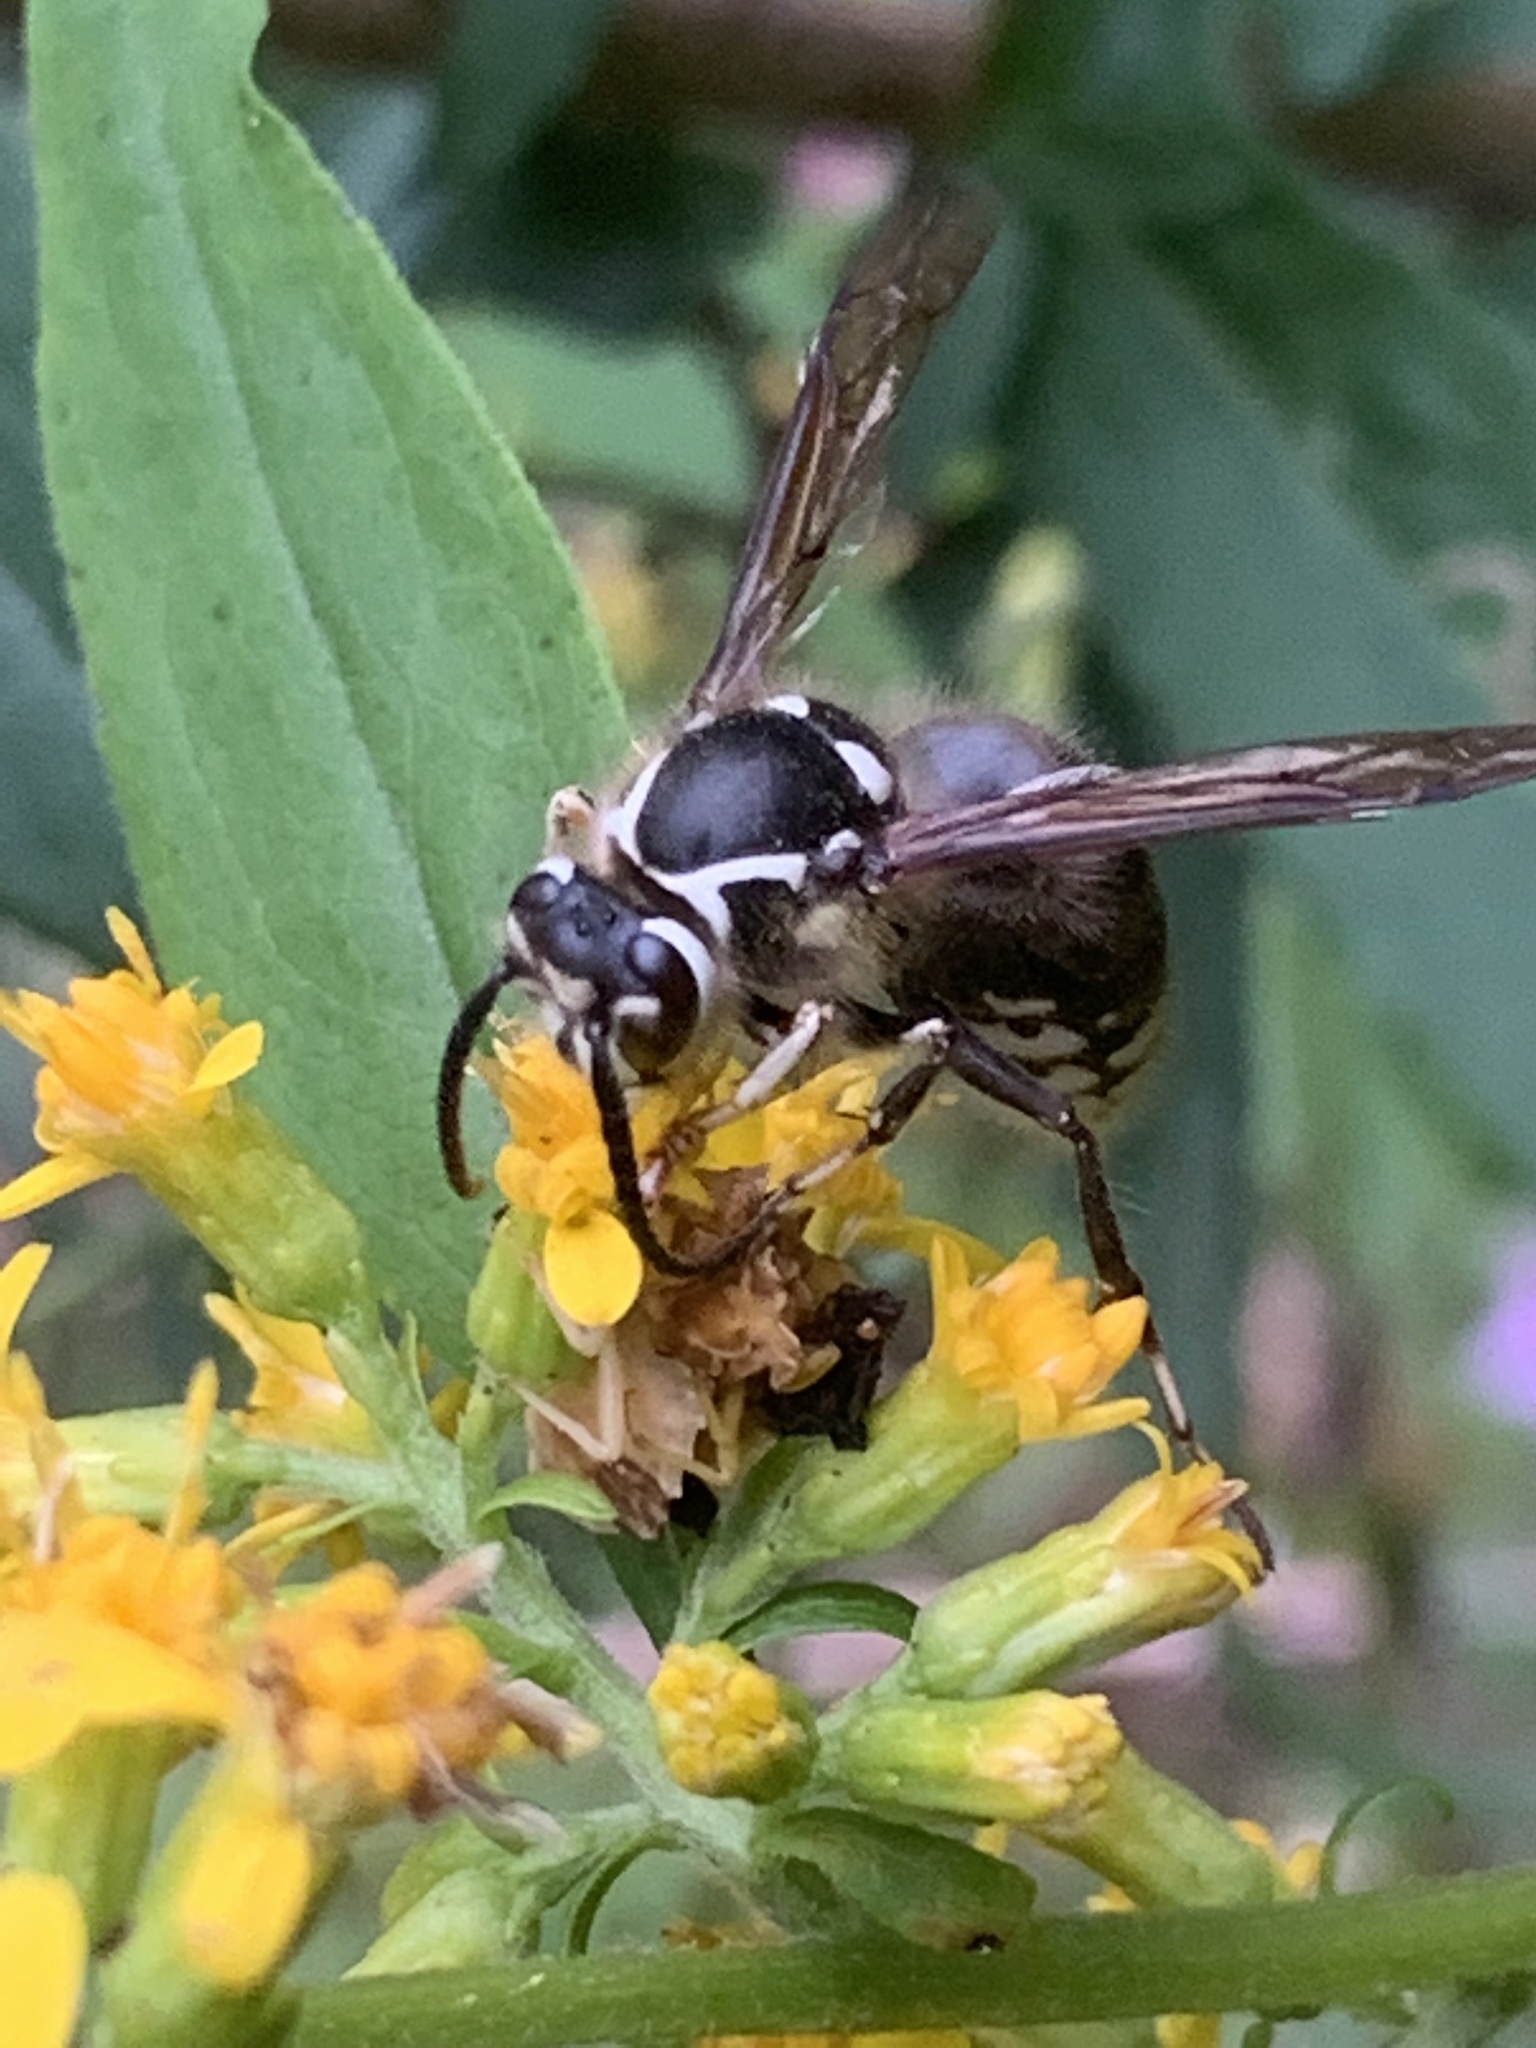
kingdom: Animalia
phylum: Arthropoda
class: Insecta
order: Hymenoptera
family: Vespidae
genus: Dolichovespula
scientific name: Dolichovespula maculata
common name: Bald-faced hornet
